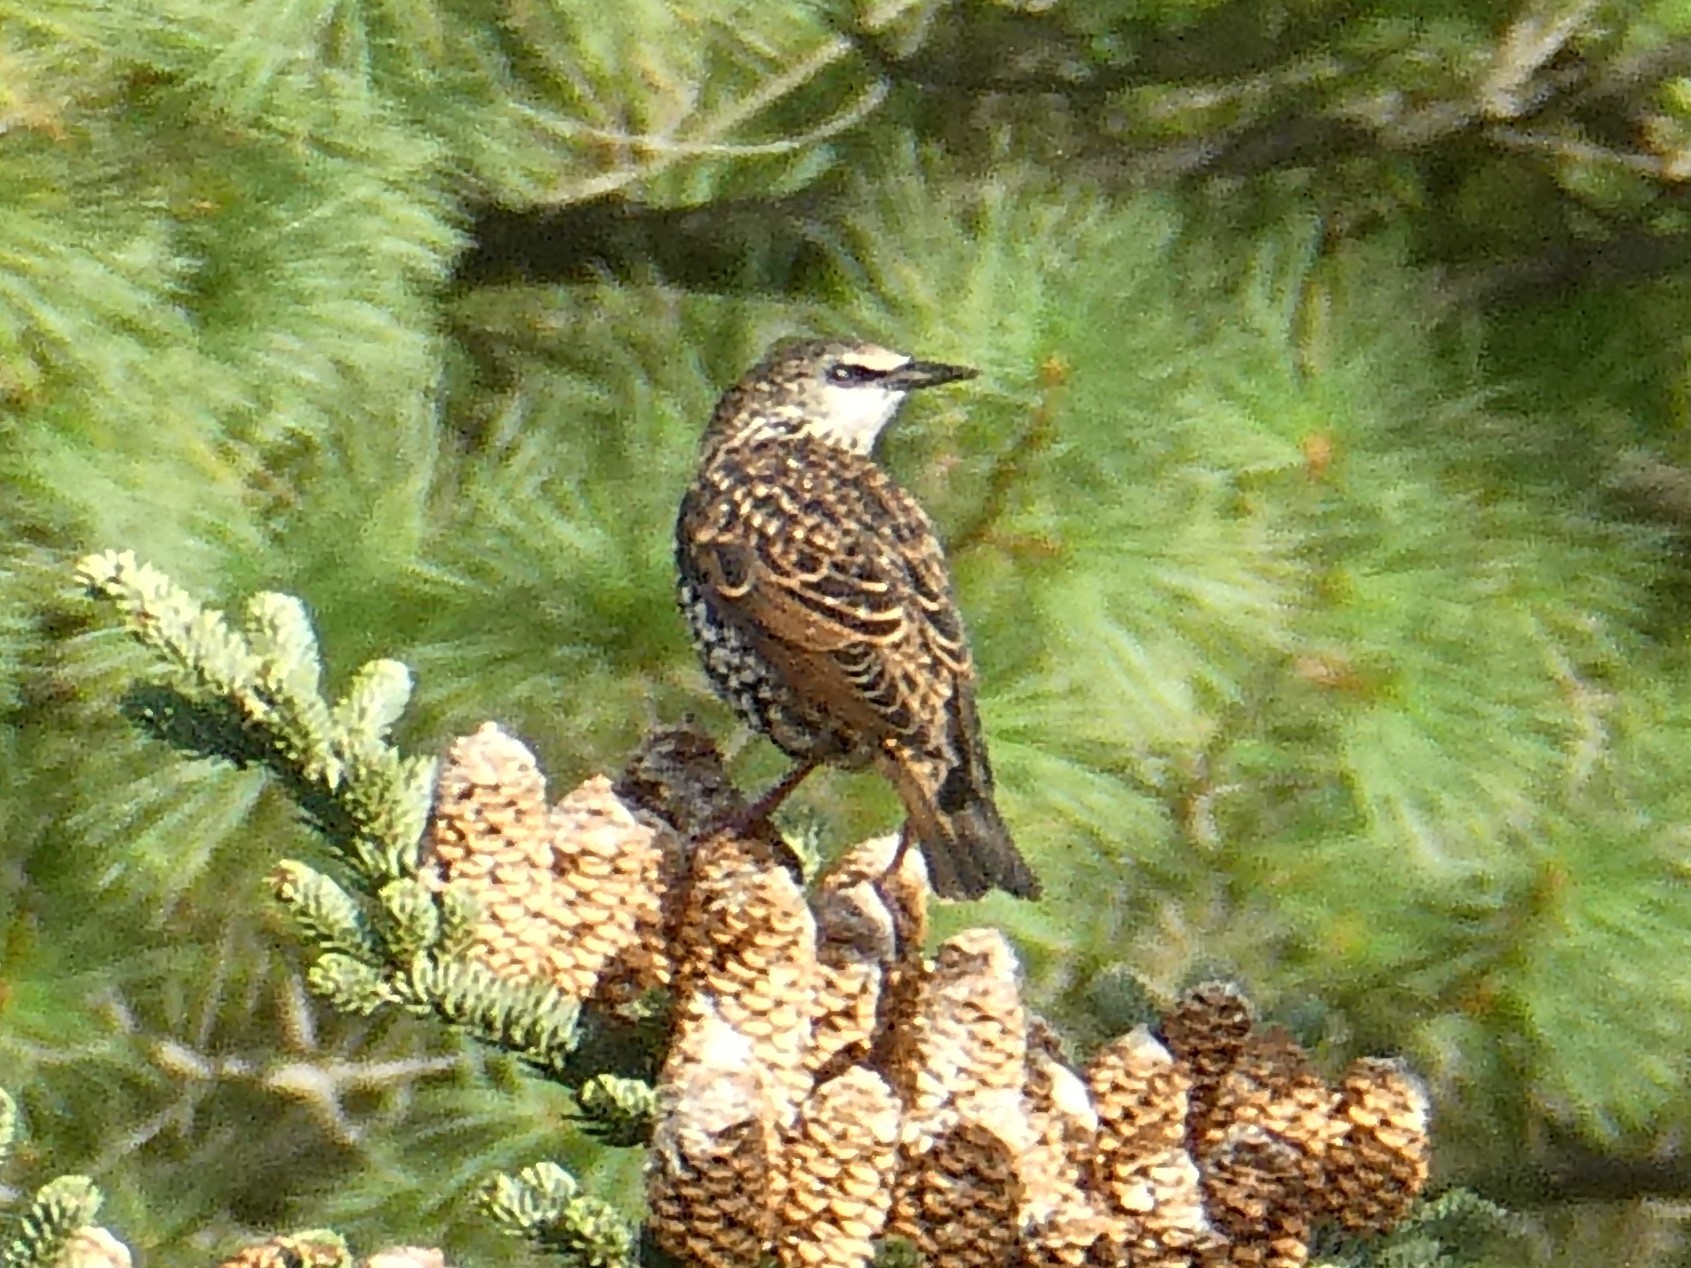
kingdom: Animalia
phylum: Chordata
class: Aves
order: Passeriformes
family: Sturnidae
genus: Sturnus
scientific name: Sturnus vulgaris
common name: Common starling
